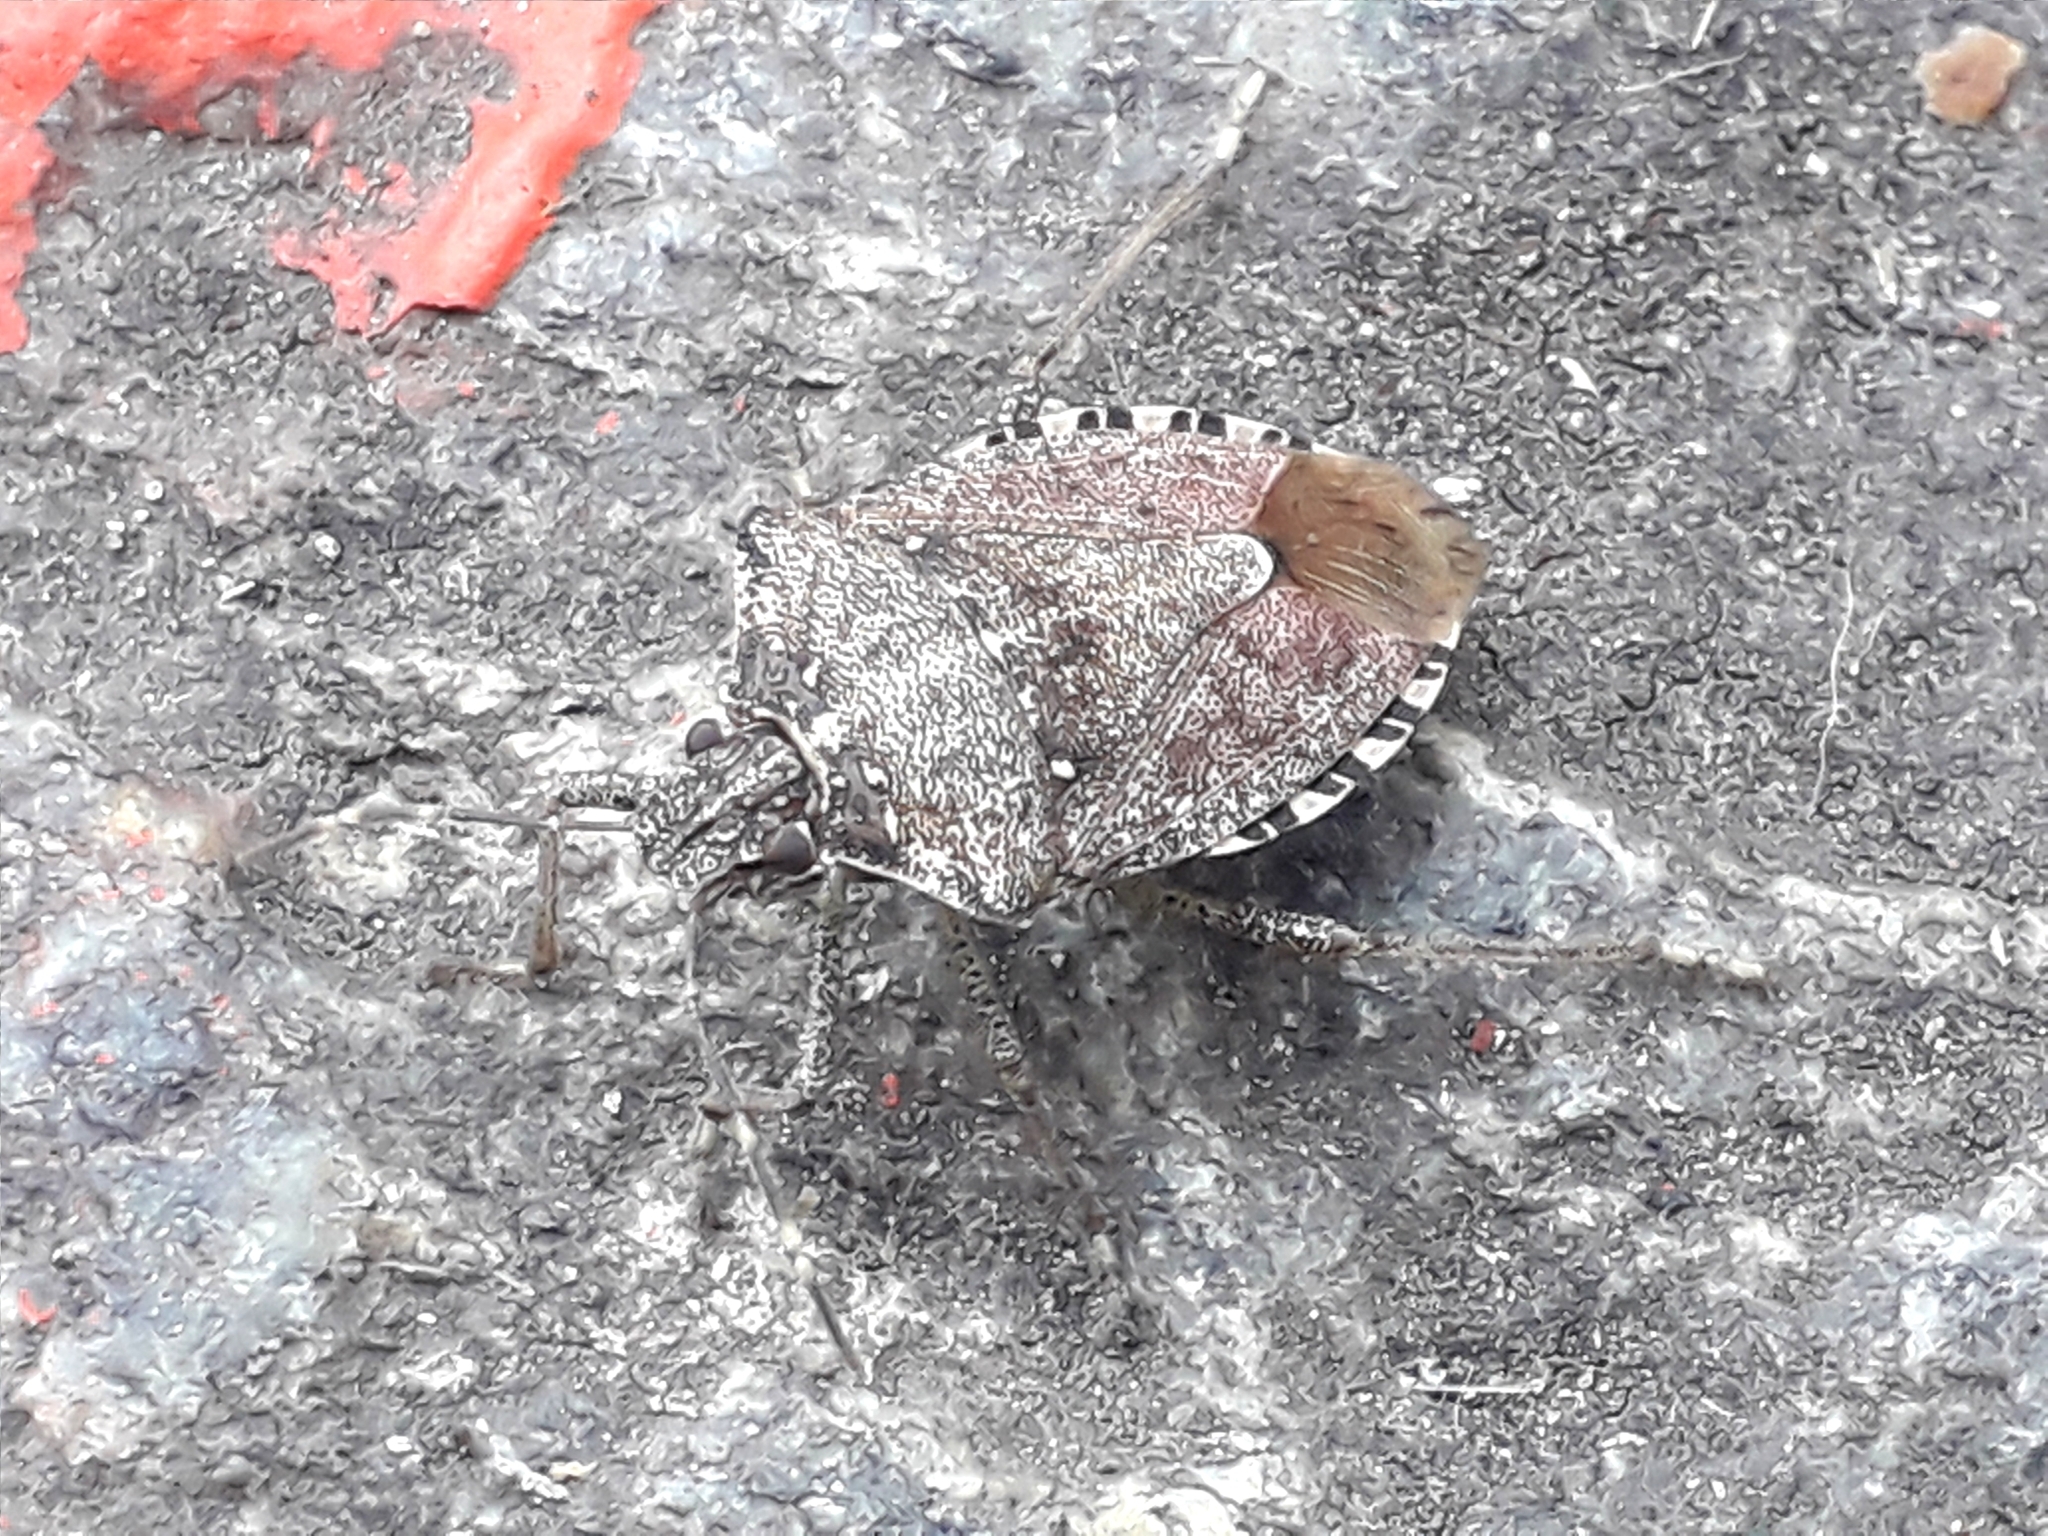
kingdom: Animalia
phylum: Arthropoda
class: Insecta
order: Hemiptera
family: Pentatomidae
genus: Halyomorpha
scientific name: Halyomorpha halys
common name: Brown marmorated stink bug
